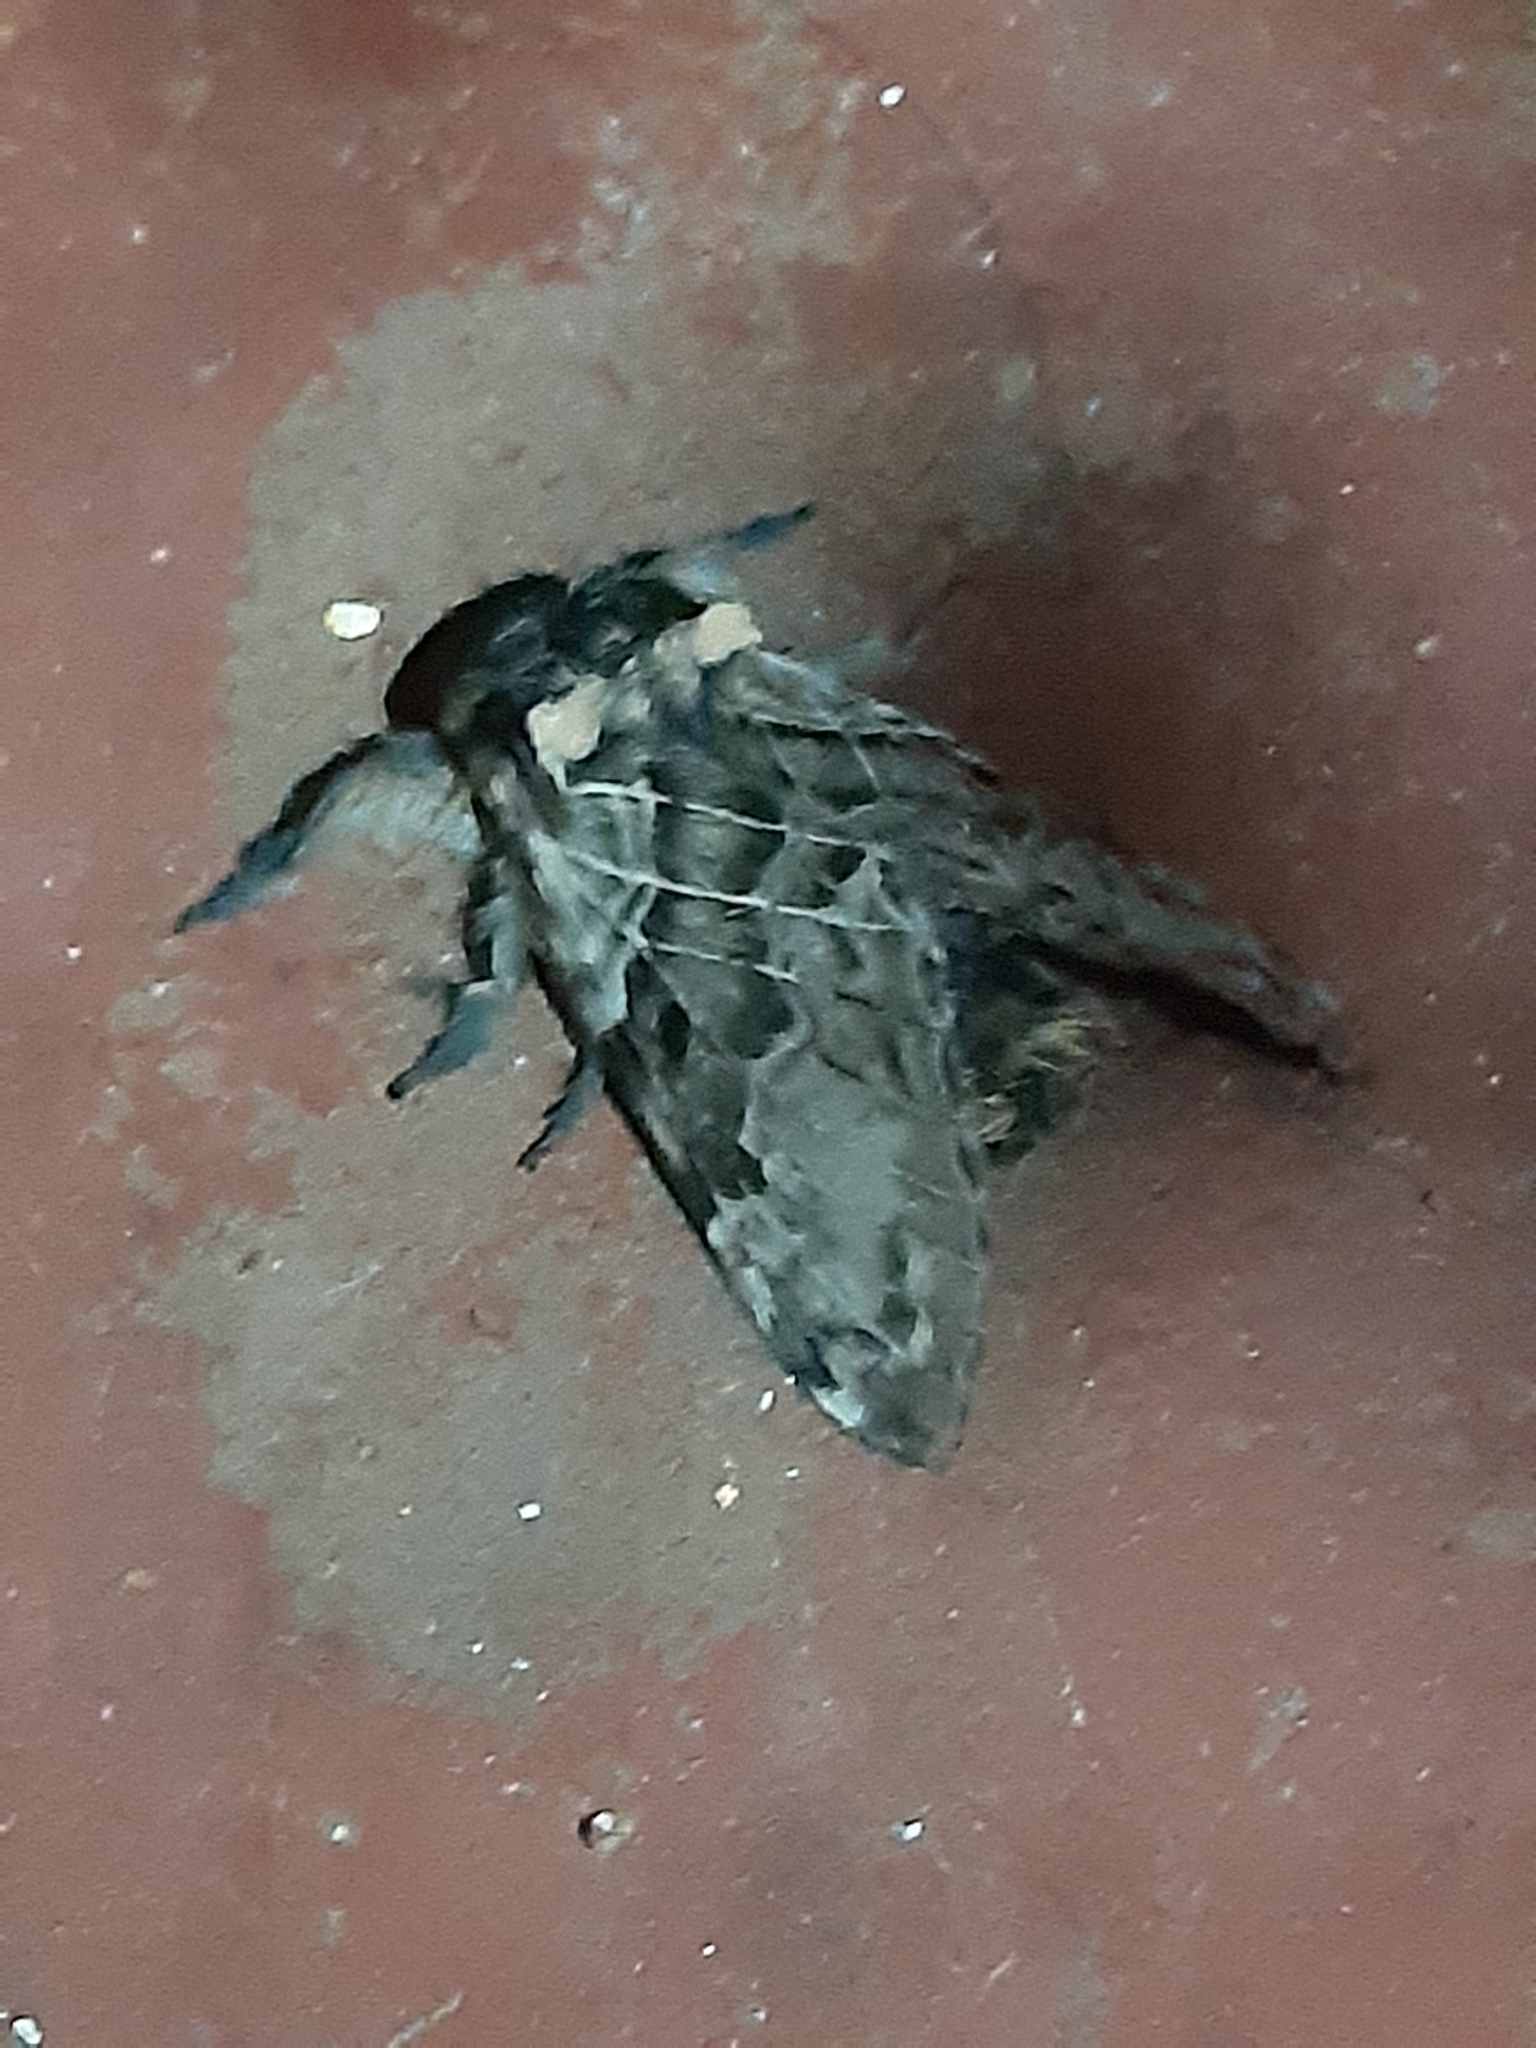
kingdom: Animalia
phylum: Arthropoda
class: Insecta
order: Lepidoptera
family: Lasiocampidae
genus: Labedera
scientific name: Labedera
